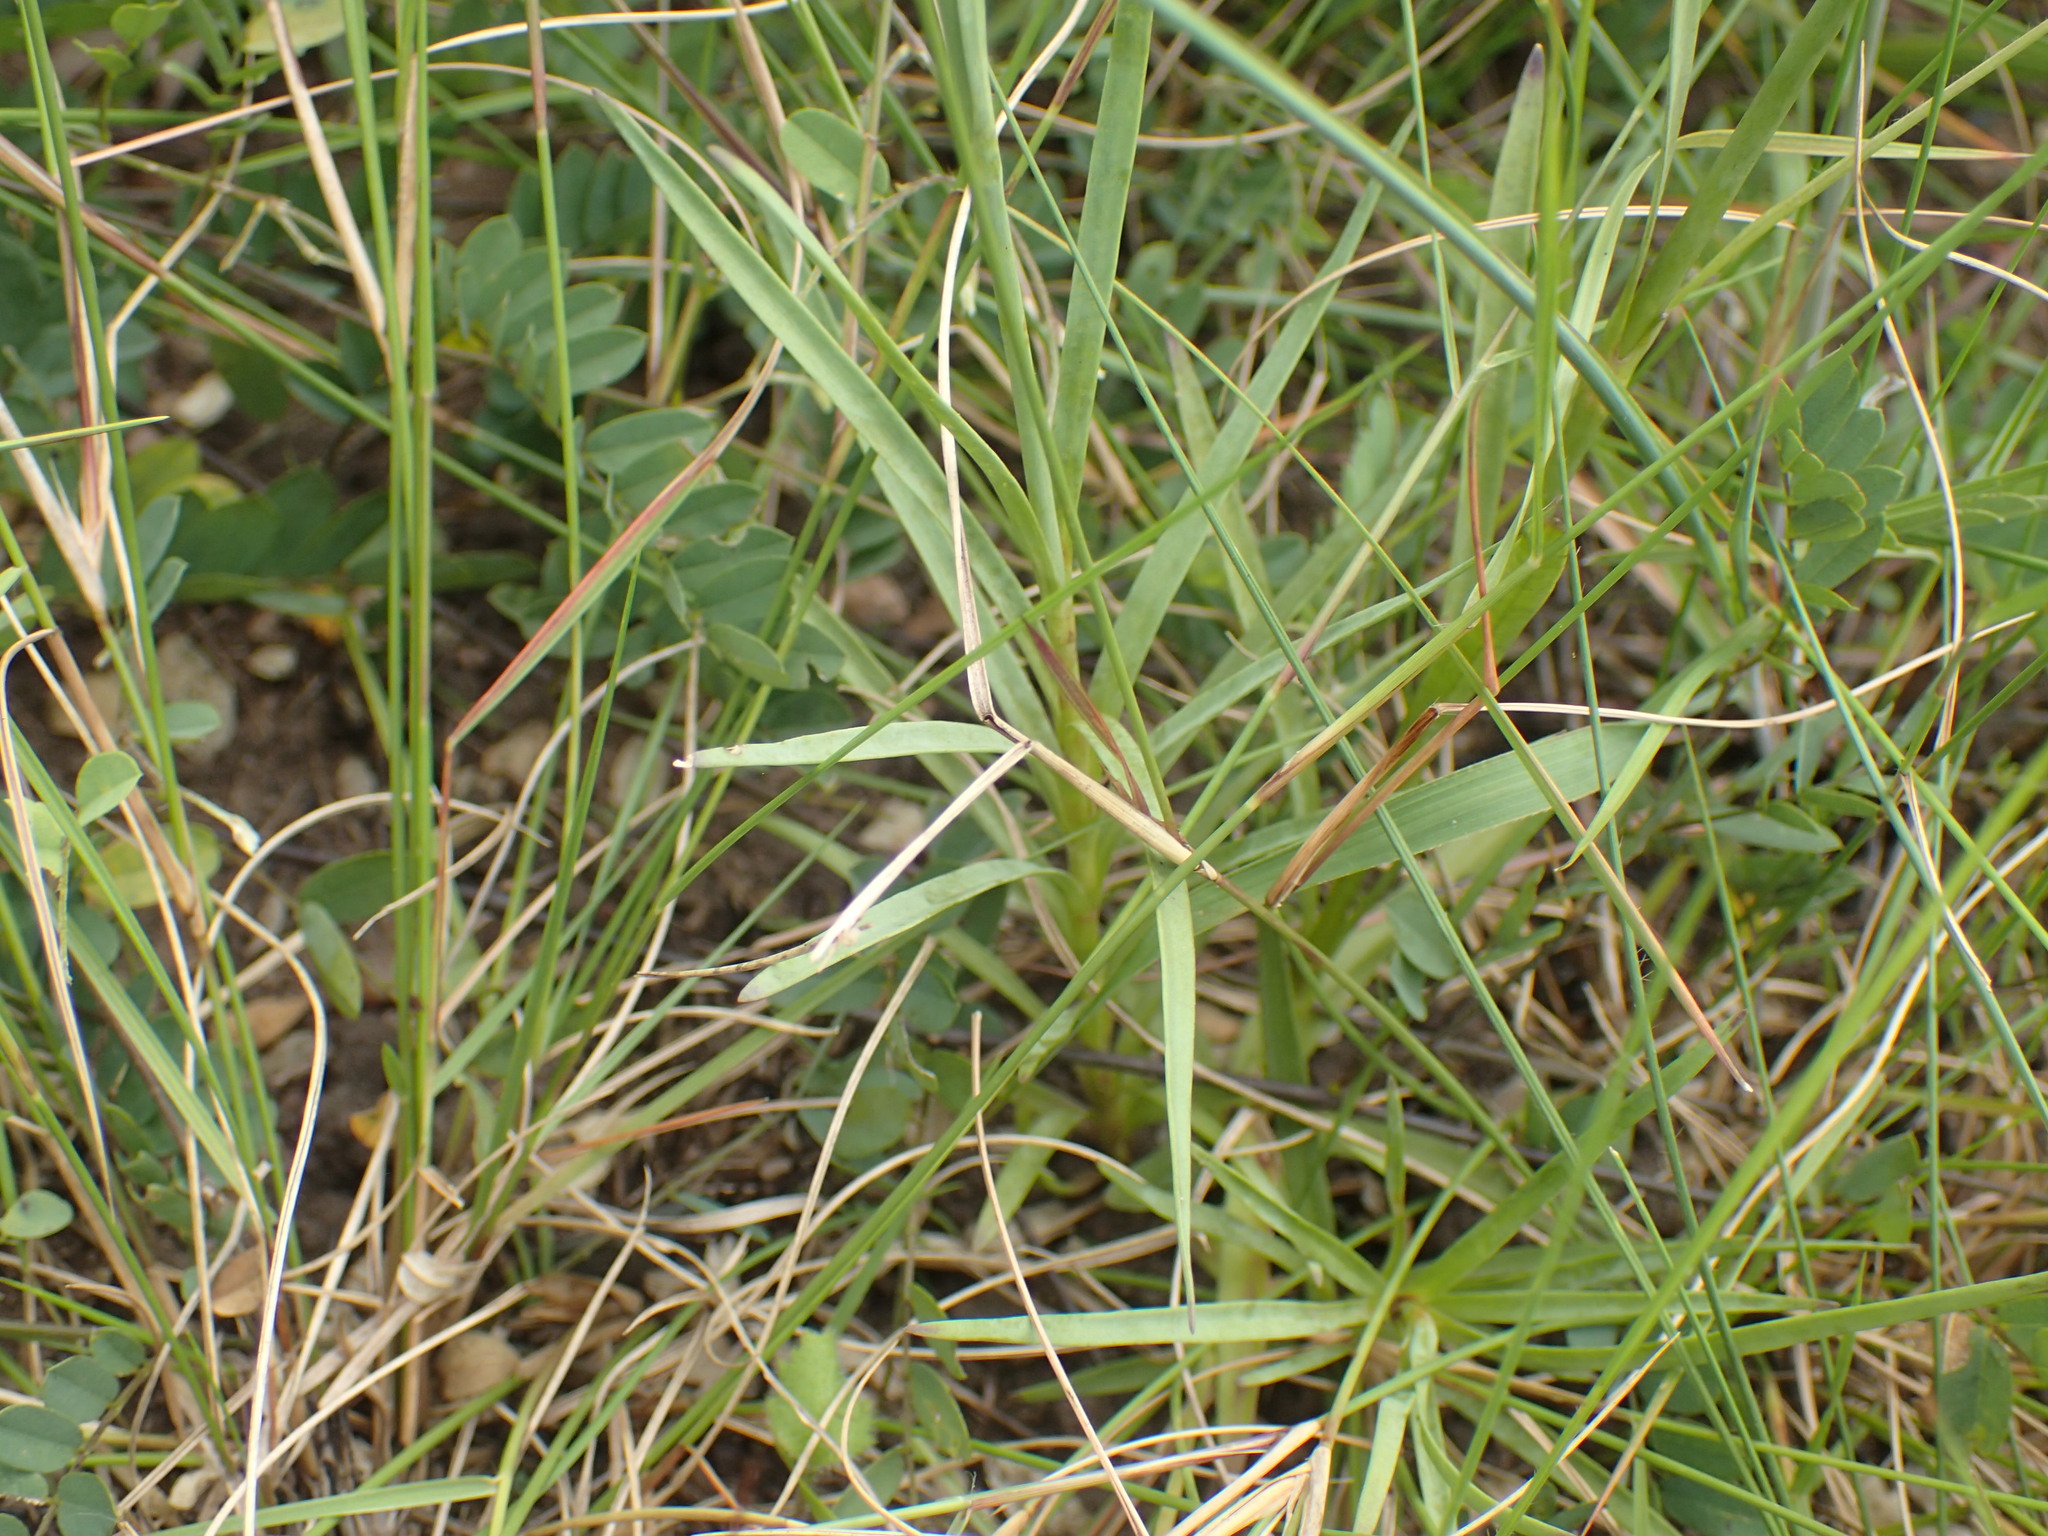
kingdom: Plantae
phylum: Tracheophyta
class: Magnoliopsida
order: Caryophyllales
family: Caryophyllaceae
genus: Dianthus
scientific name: Dianthus zeyheri
